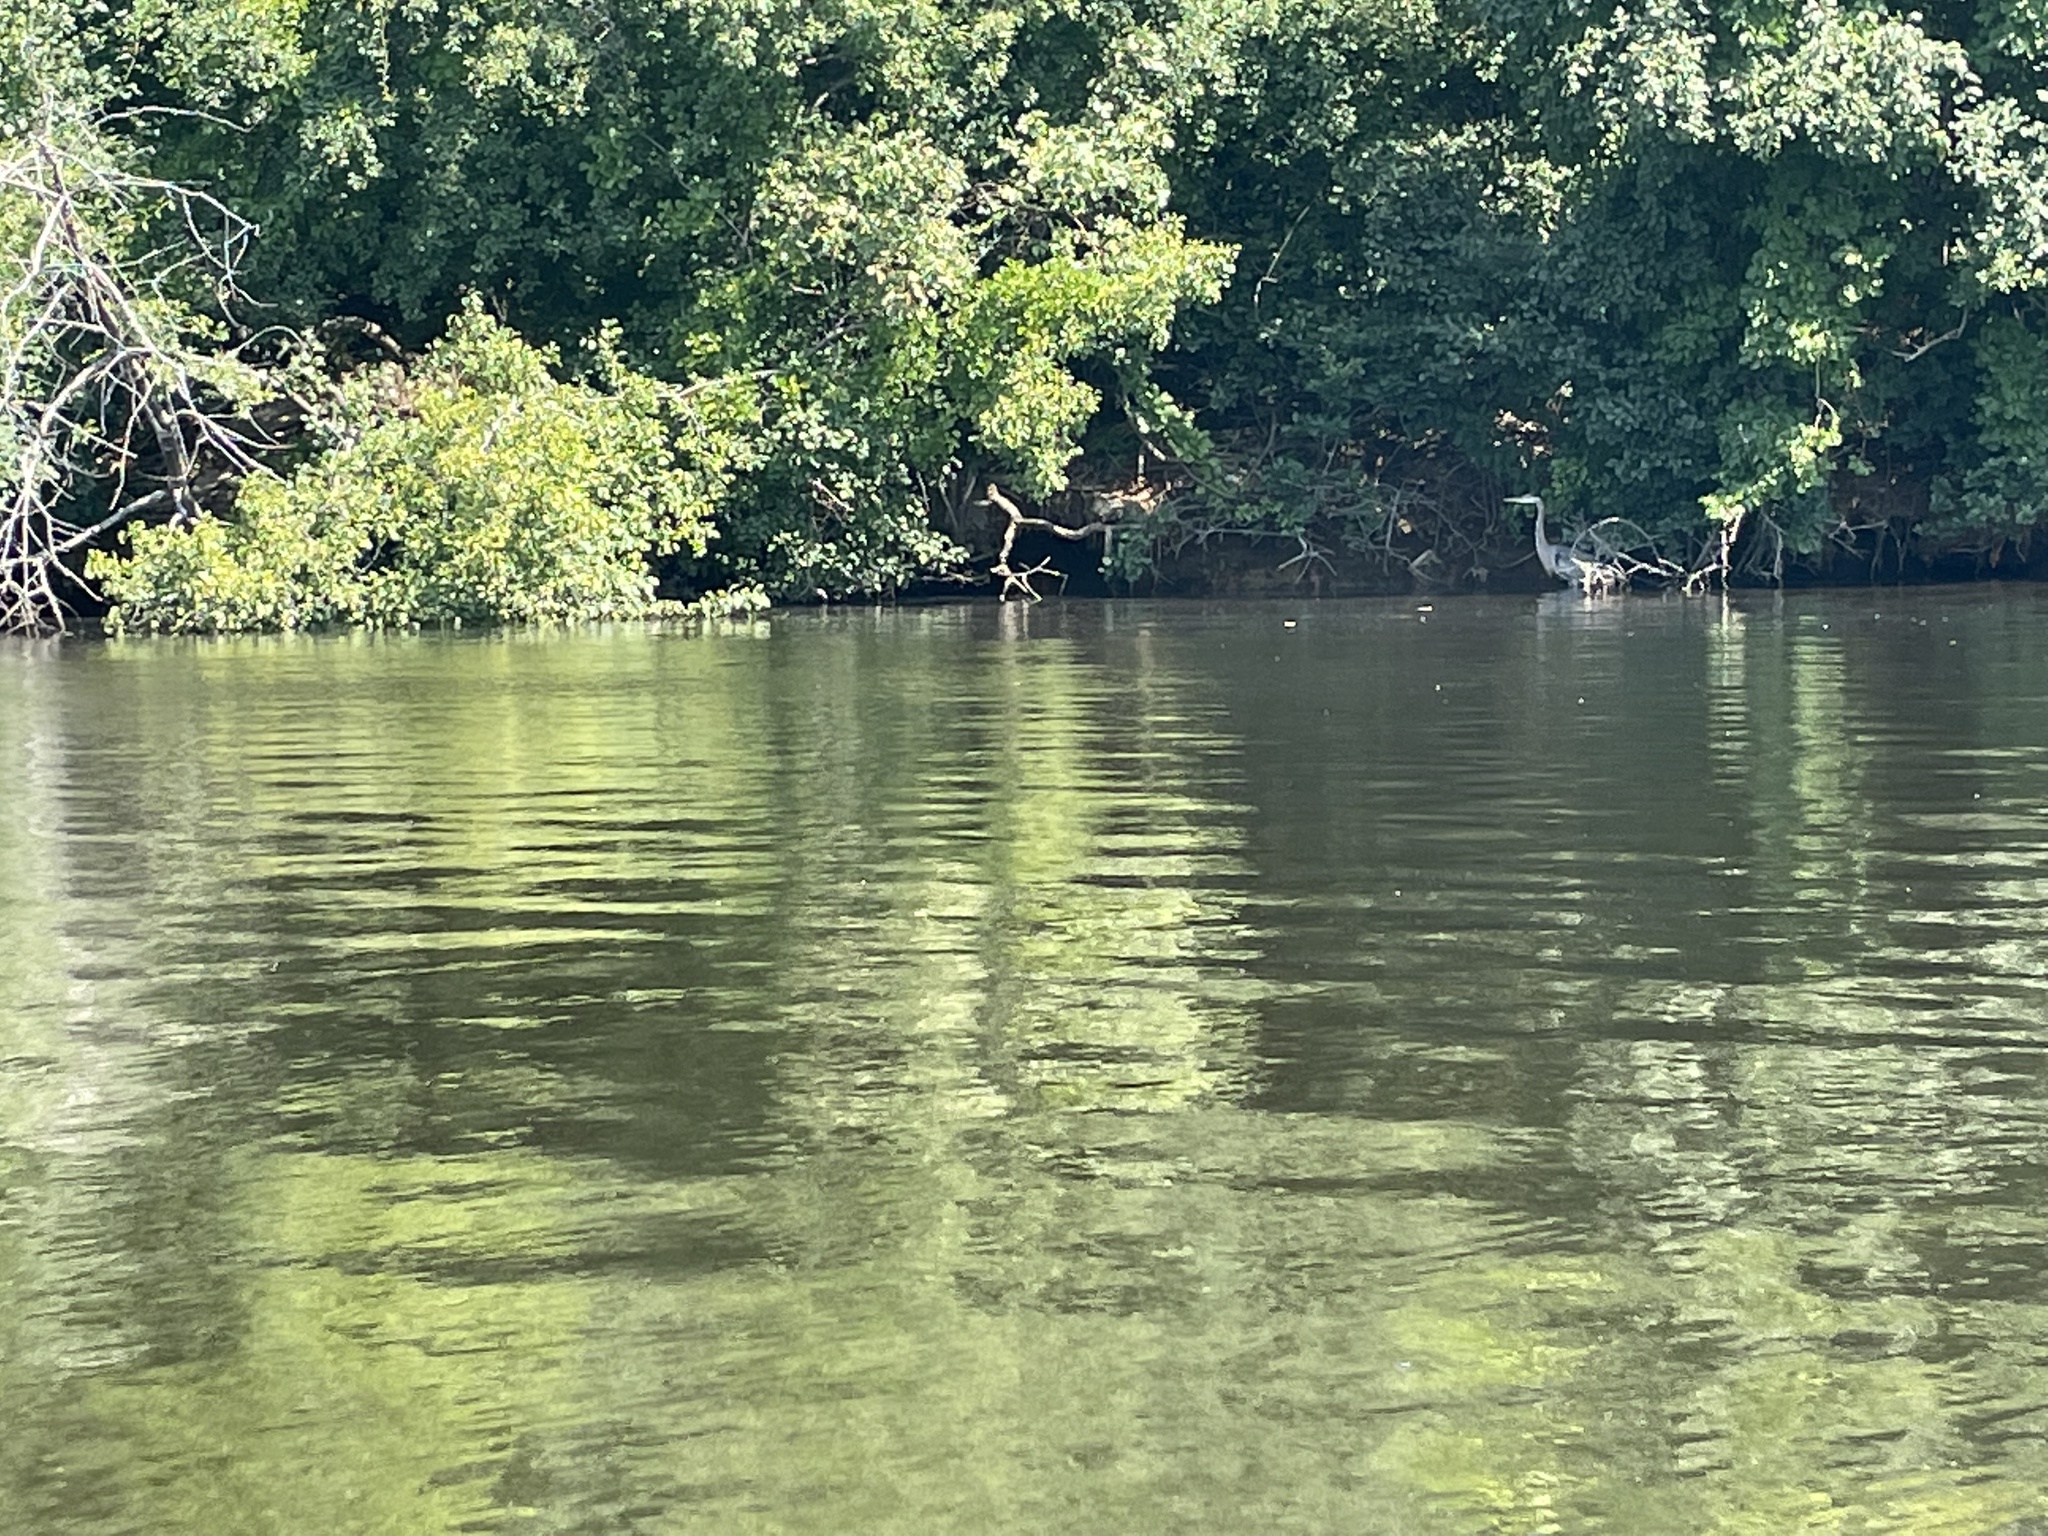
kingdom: Animalia
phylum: Chordata
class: Aves
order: Pelecaniformes
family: Ardeidae
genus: Ardea
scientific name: Ardea herodias
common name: Great blue heron
